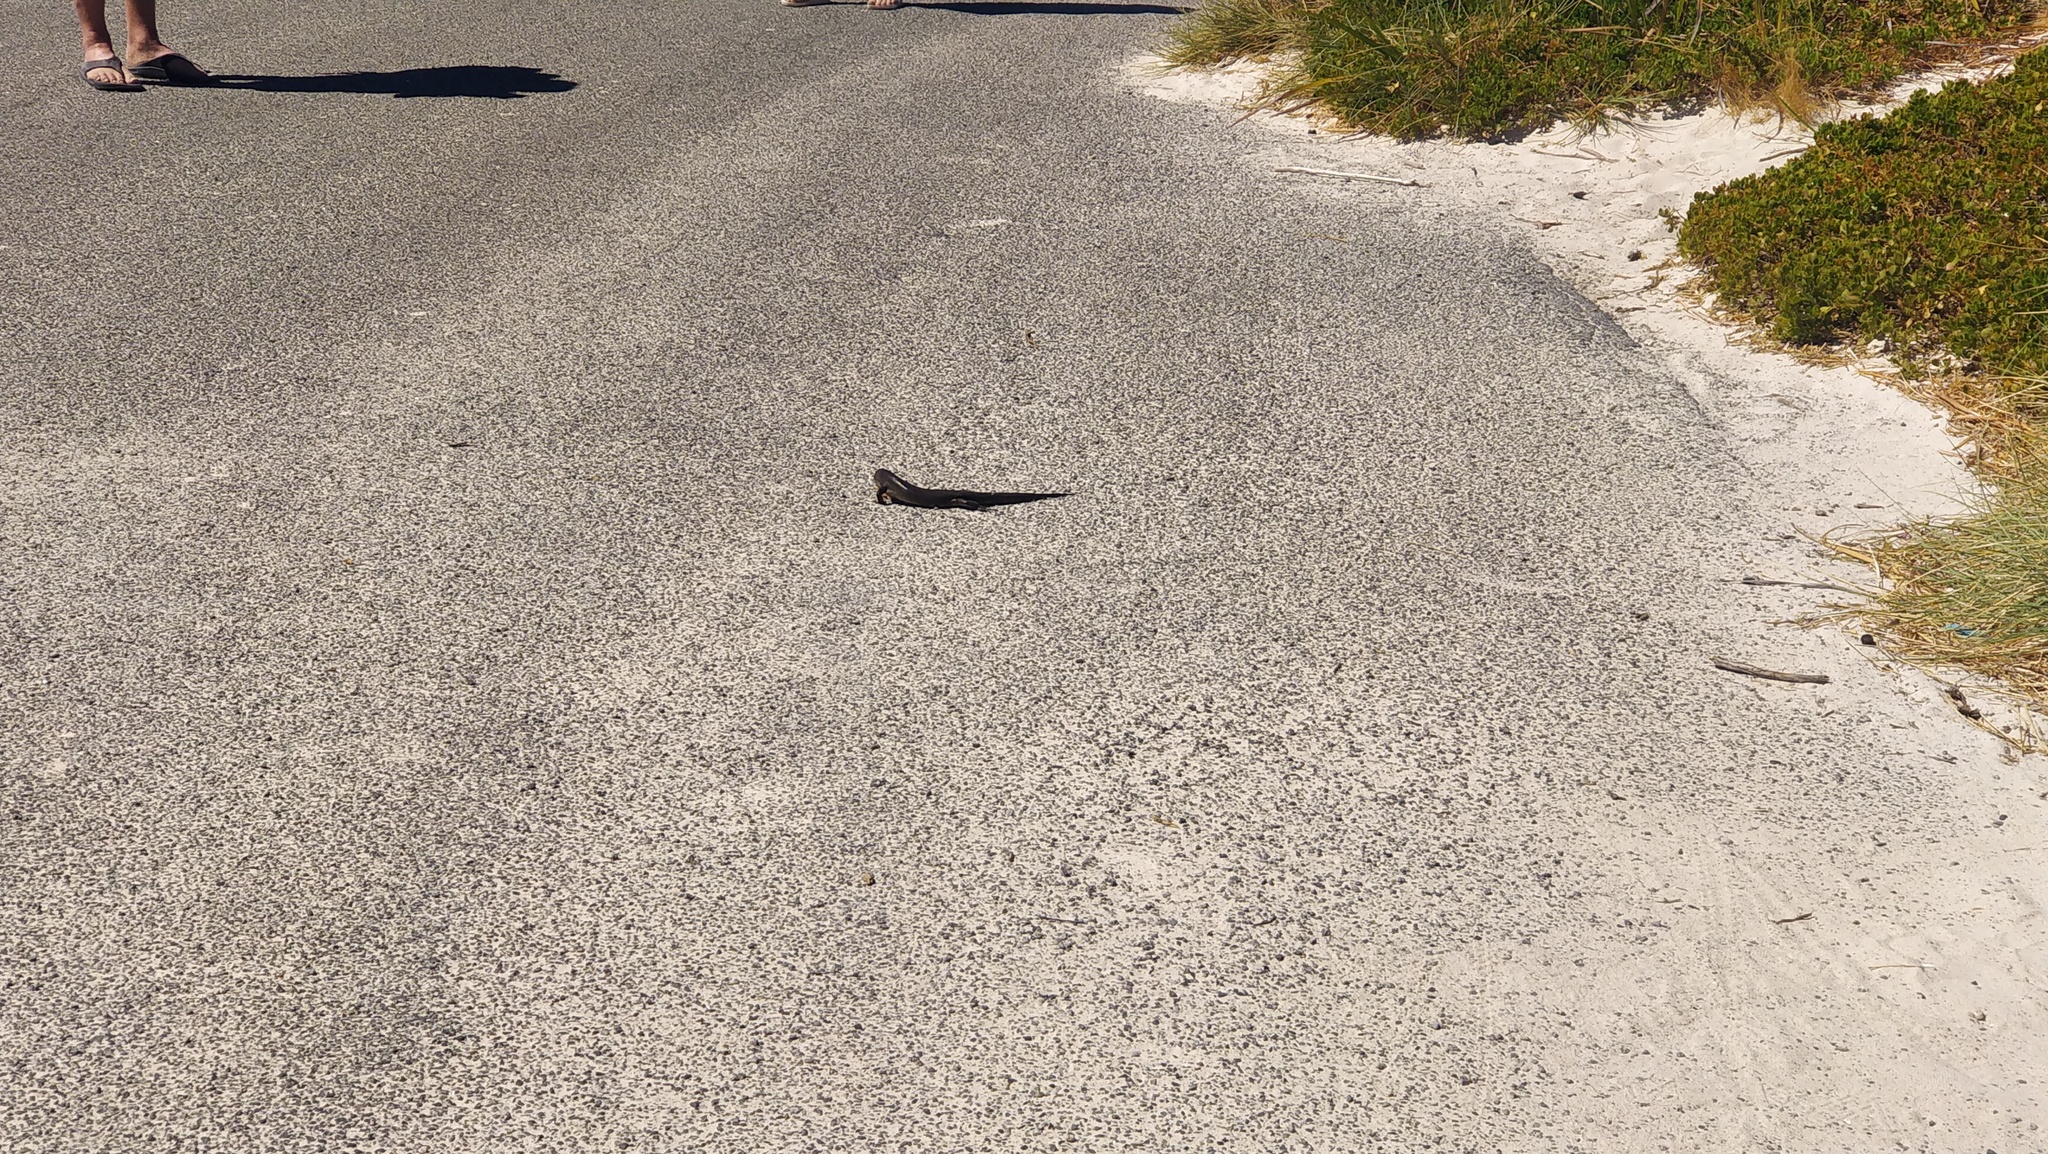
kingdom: Animalia
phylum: Chordata
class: Squamata
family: Scincidae
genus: Egernia
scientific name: Egernia kingii
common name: King's skink
